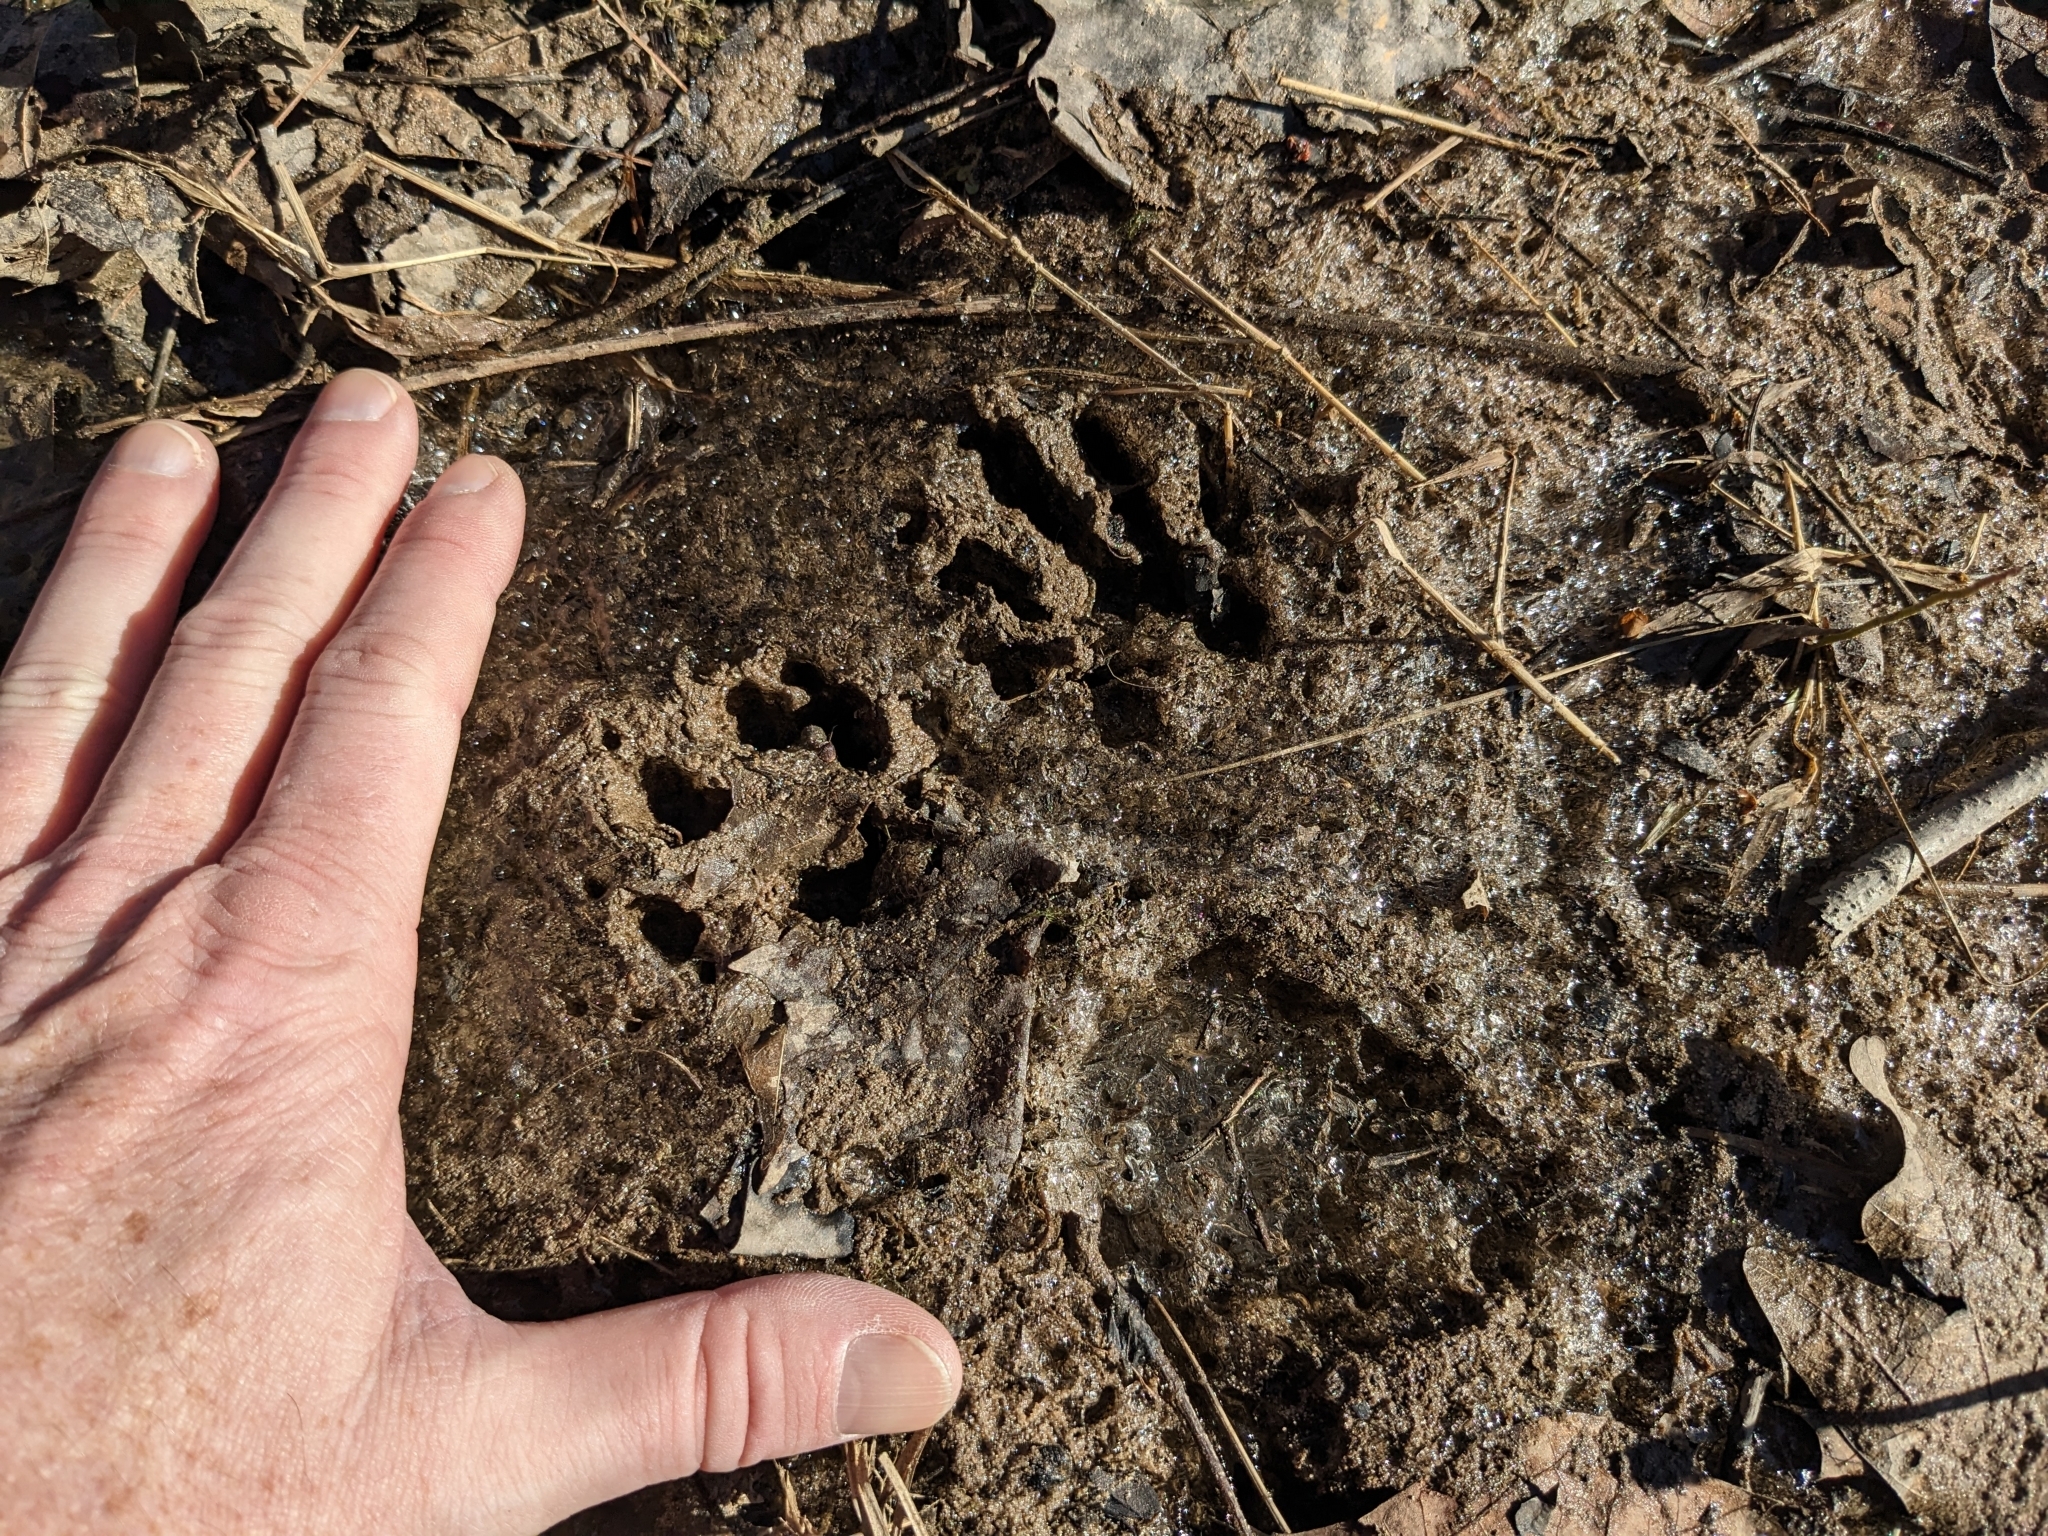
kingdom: Animalia
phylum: Chordata
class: Mammalia
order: Carnivora
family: Procyonidae
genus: Procyon
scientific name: Procyon lotor
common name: Raccoon
